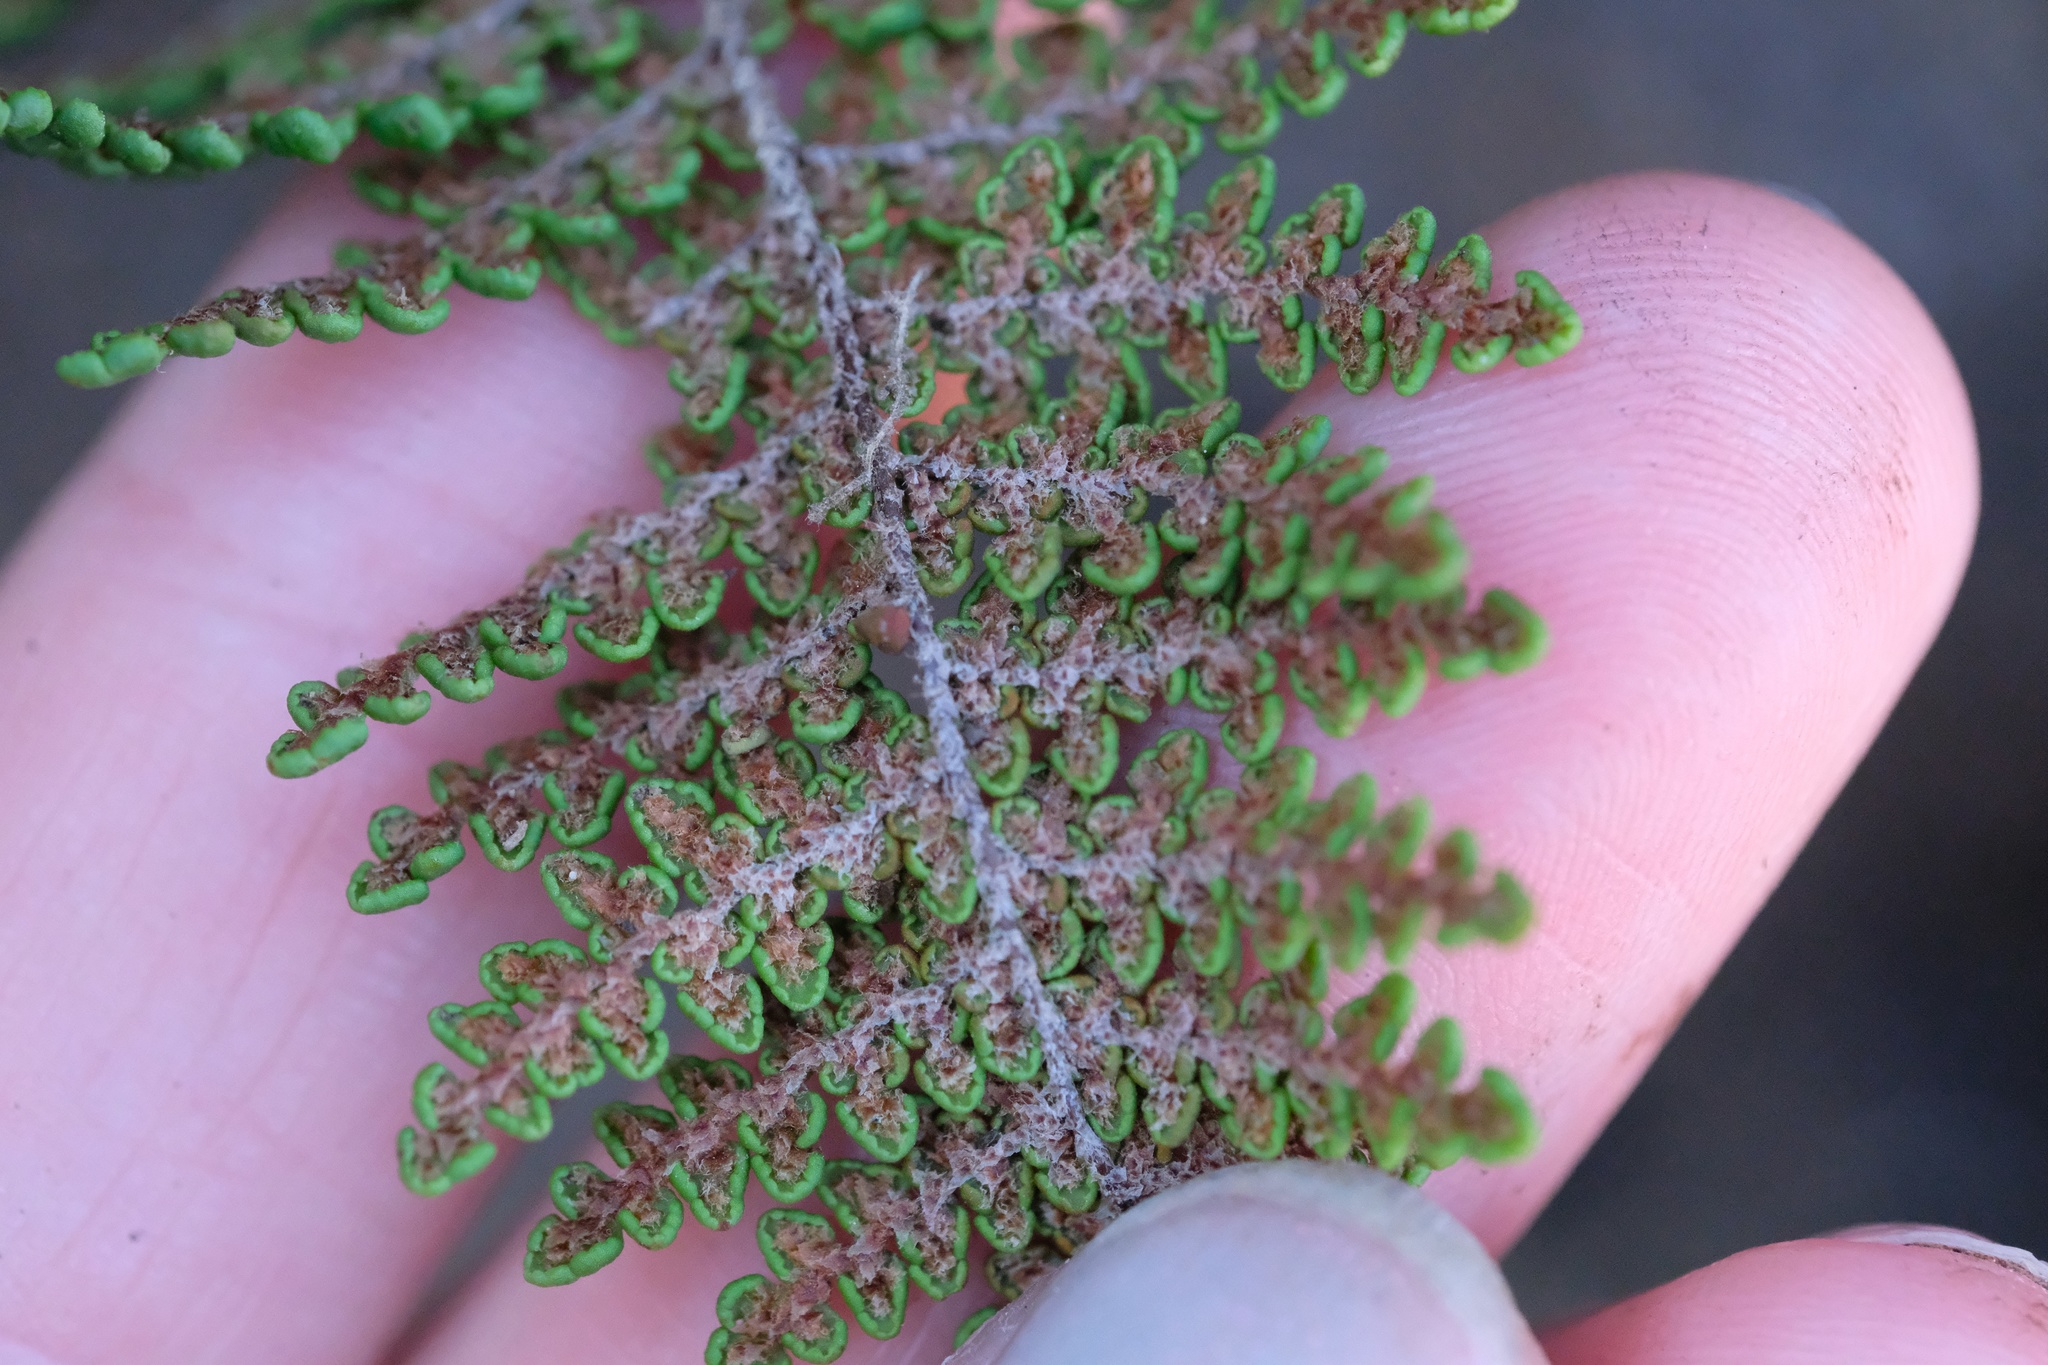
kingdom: Plantae
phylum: Tracheophyta
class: Polypodiopsida
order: Polypodiales
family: Pteridaceae
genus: Myriopteris
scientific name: Myriopteris clevelandii
